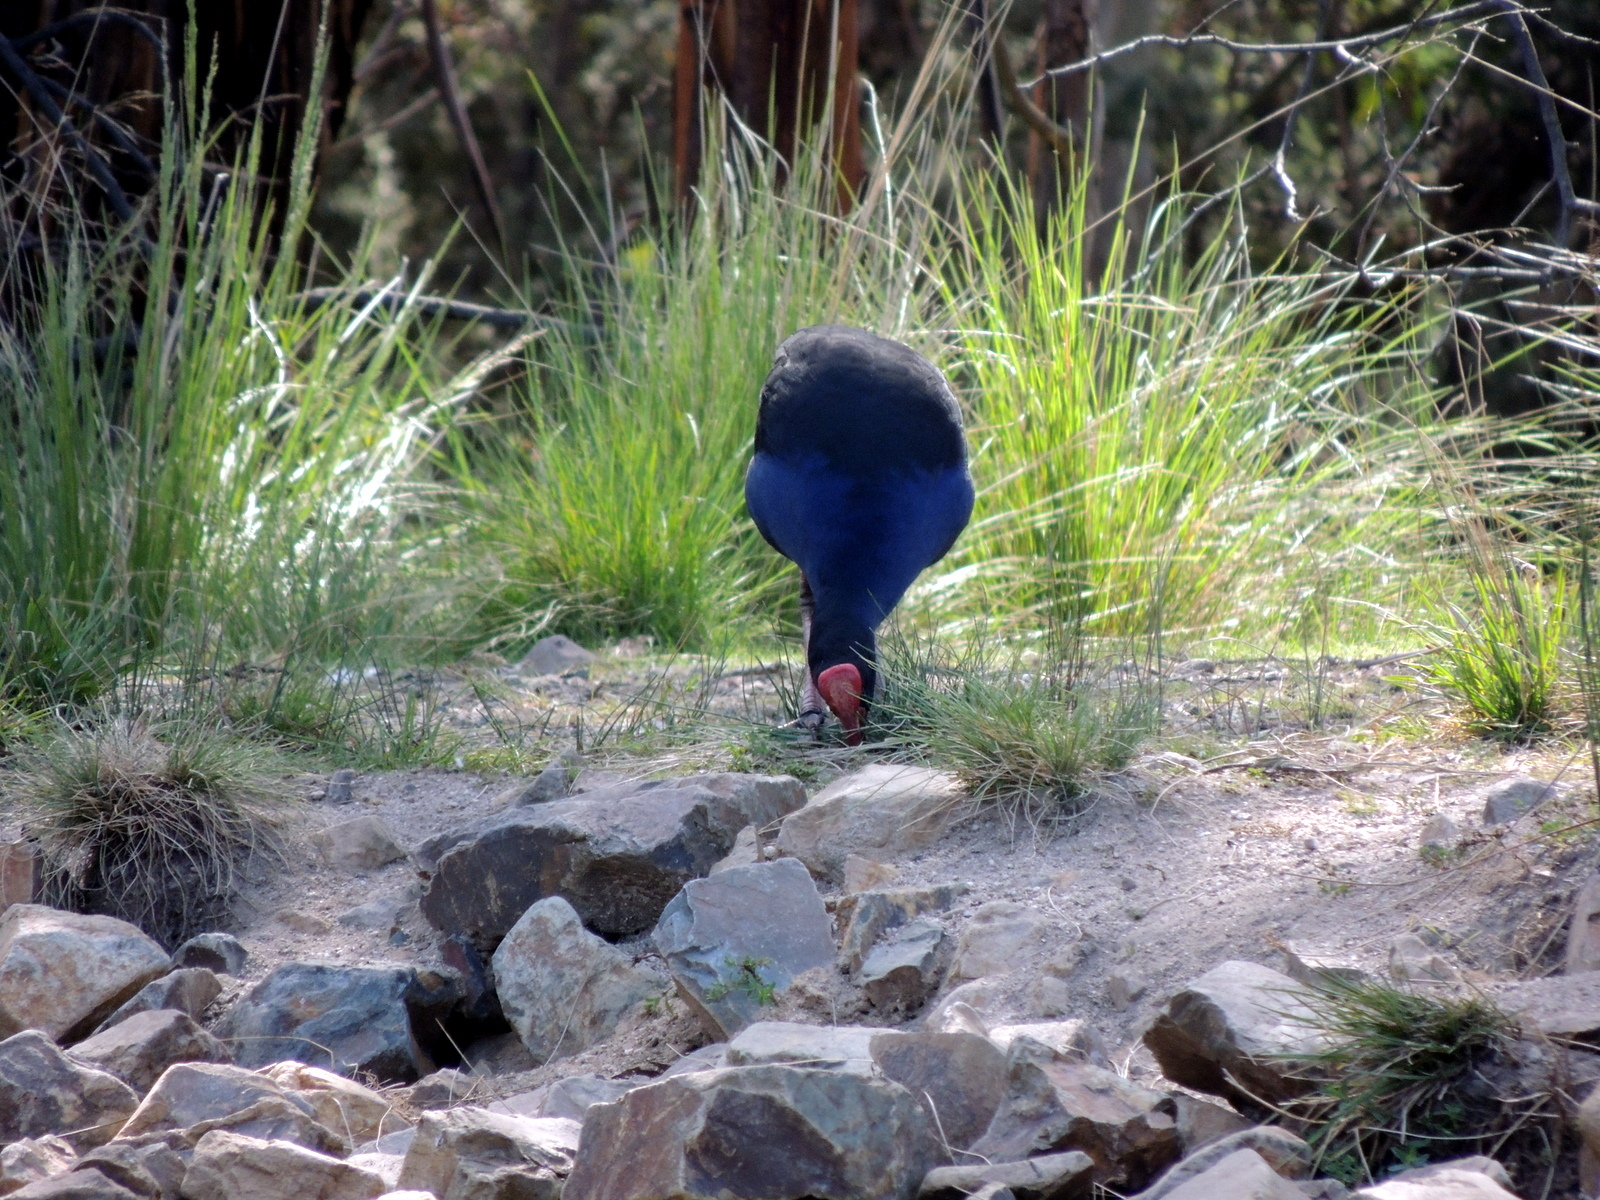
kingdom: Animalia
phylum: Chordata
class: Aves
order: Gruiformes
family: Rallidae
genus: Porphyrio
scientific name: Porphyrio melanotus
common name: Australasian swamphen
